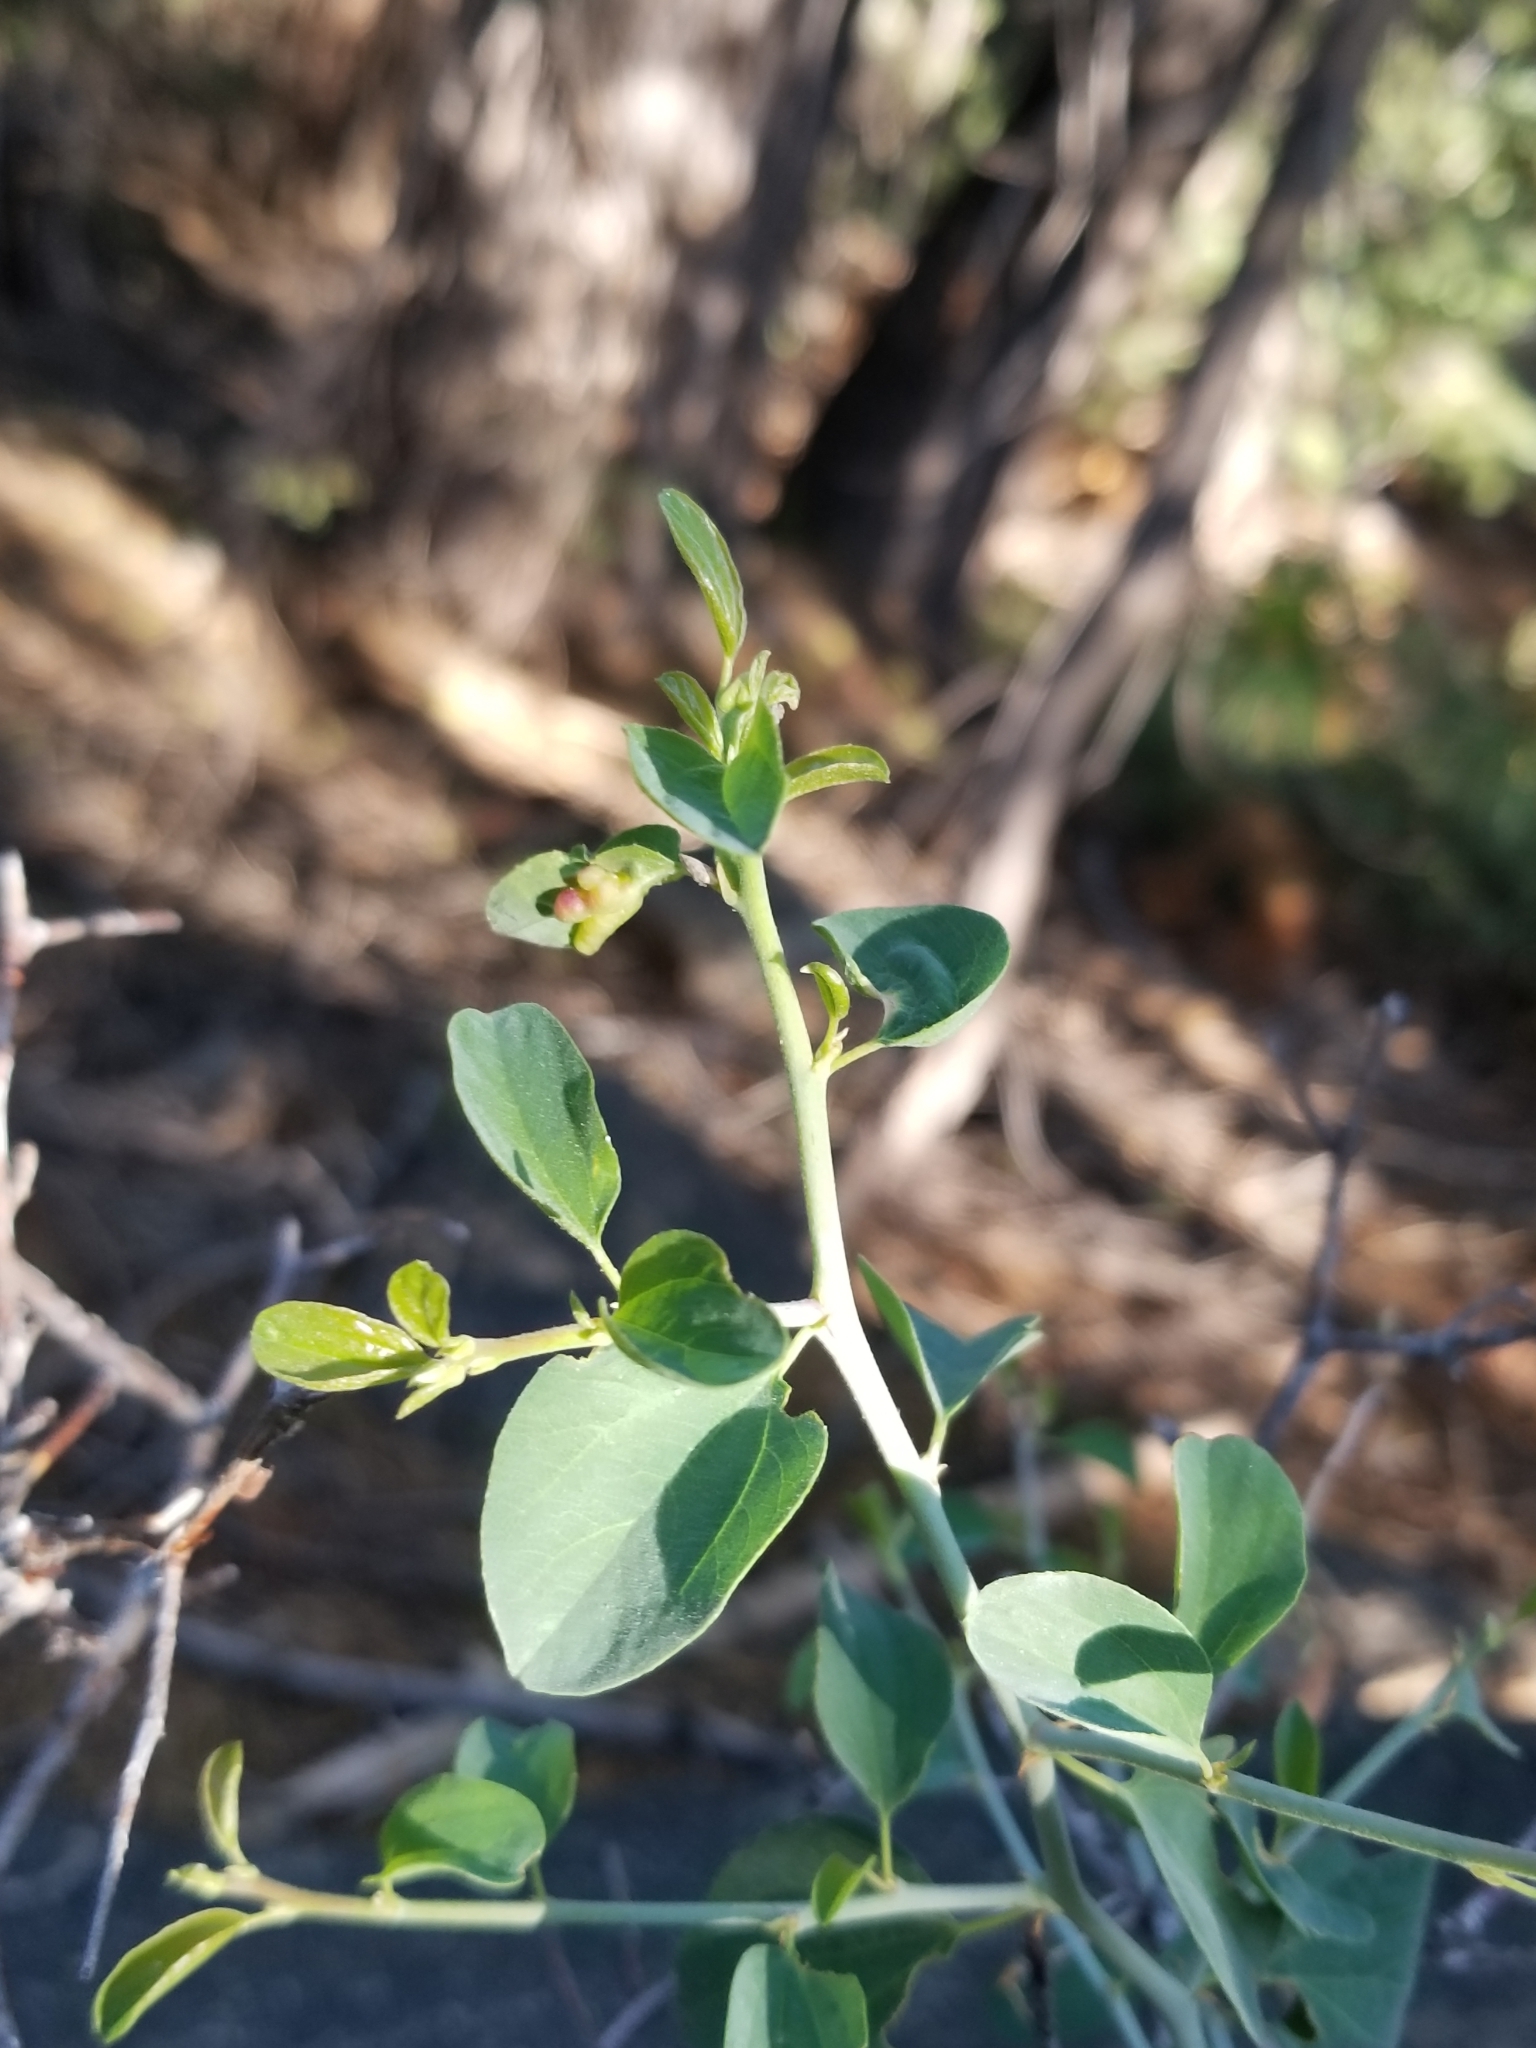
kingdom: Plantae
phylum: Tracheophyta
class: Magnoliopsida
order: Rosales
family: Rhamnaceae
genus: Ceanothus
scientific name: Ceanothus cordulatus
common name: Mountain whitethorn
